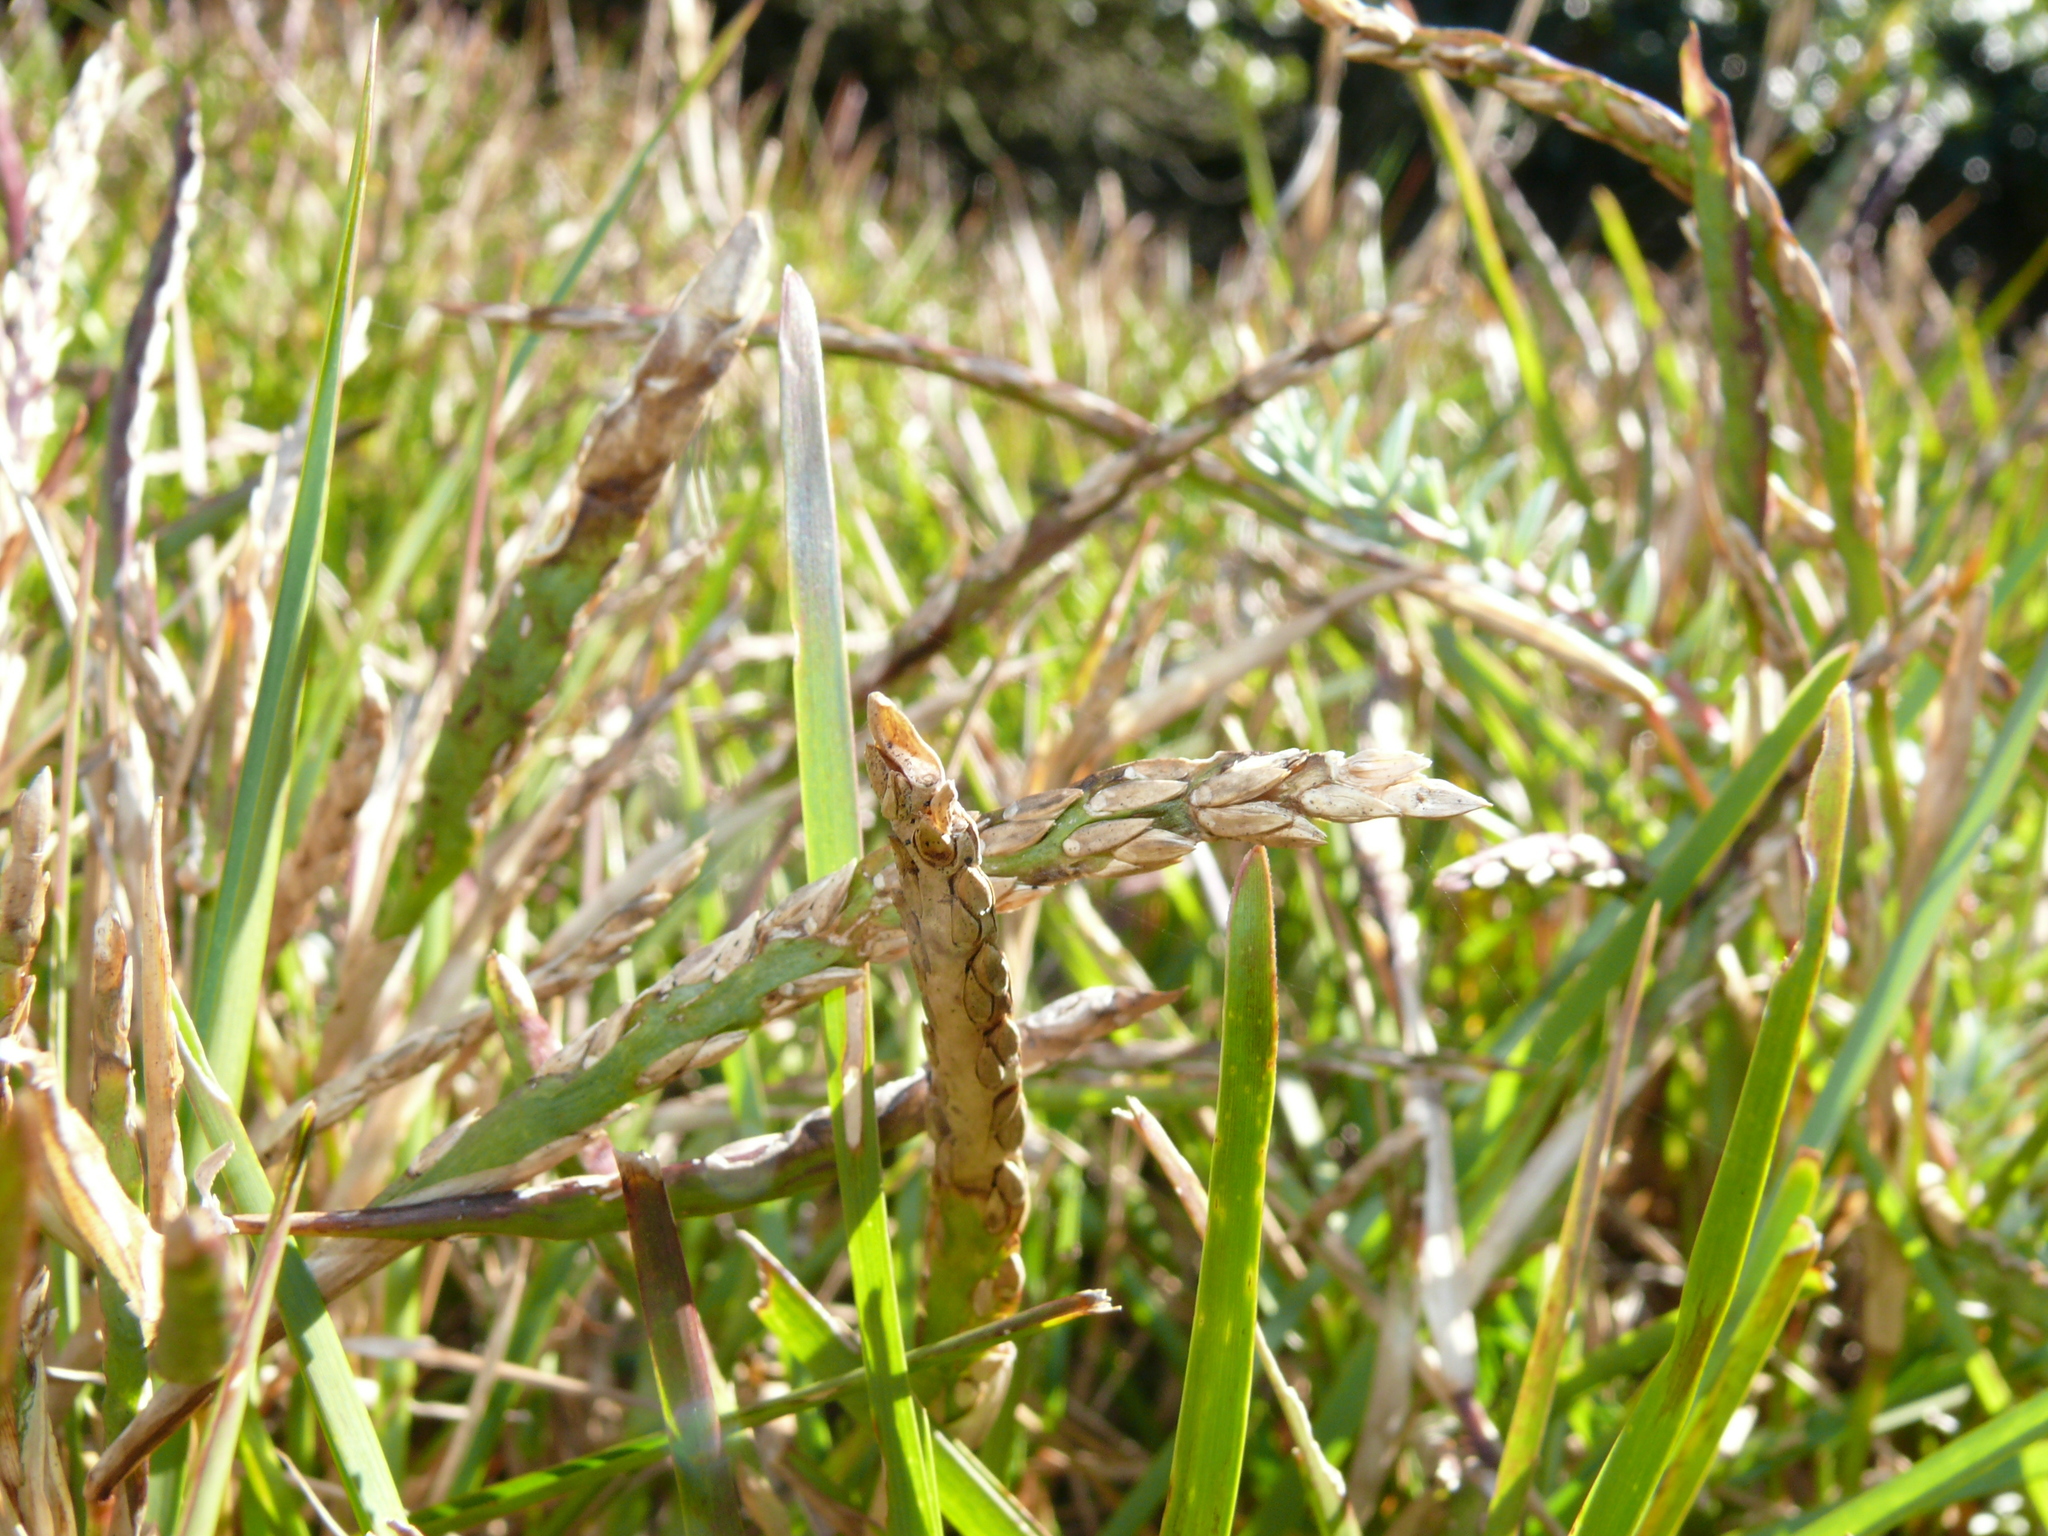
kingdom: Plantae
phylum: Tracheophyta
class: Liliopsida
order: Poales
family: Poaceae
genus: Stenotaphrum
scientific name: Stenotaphrum secundatum
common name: St. augustine grass
